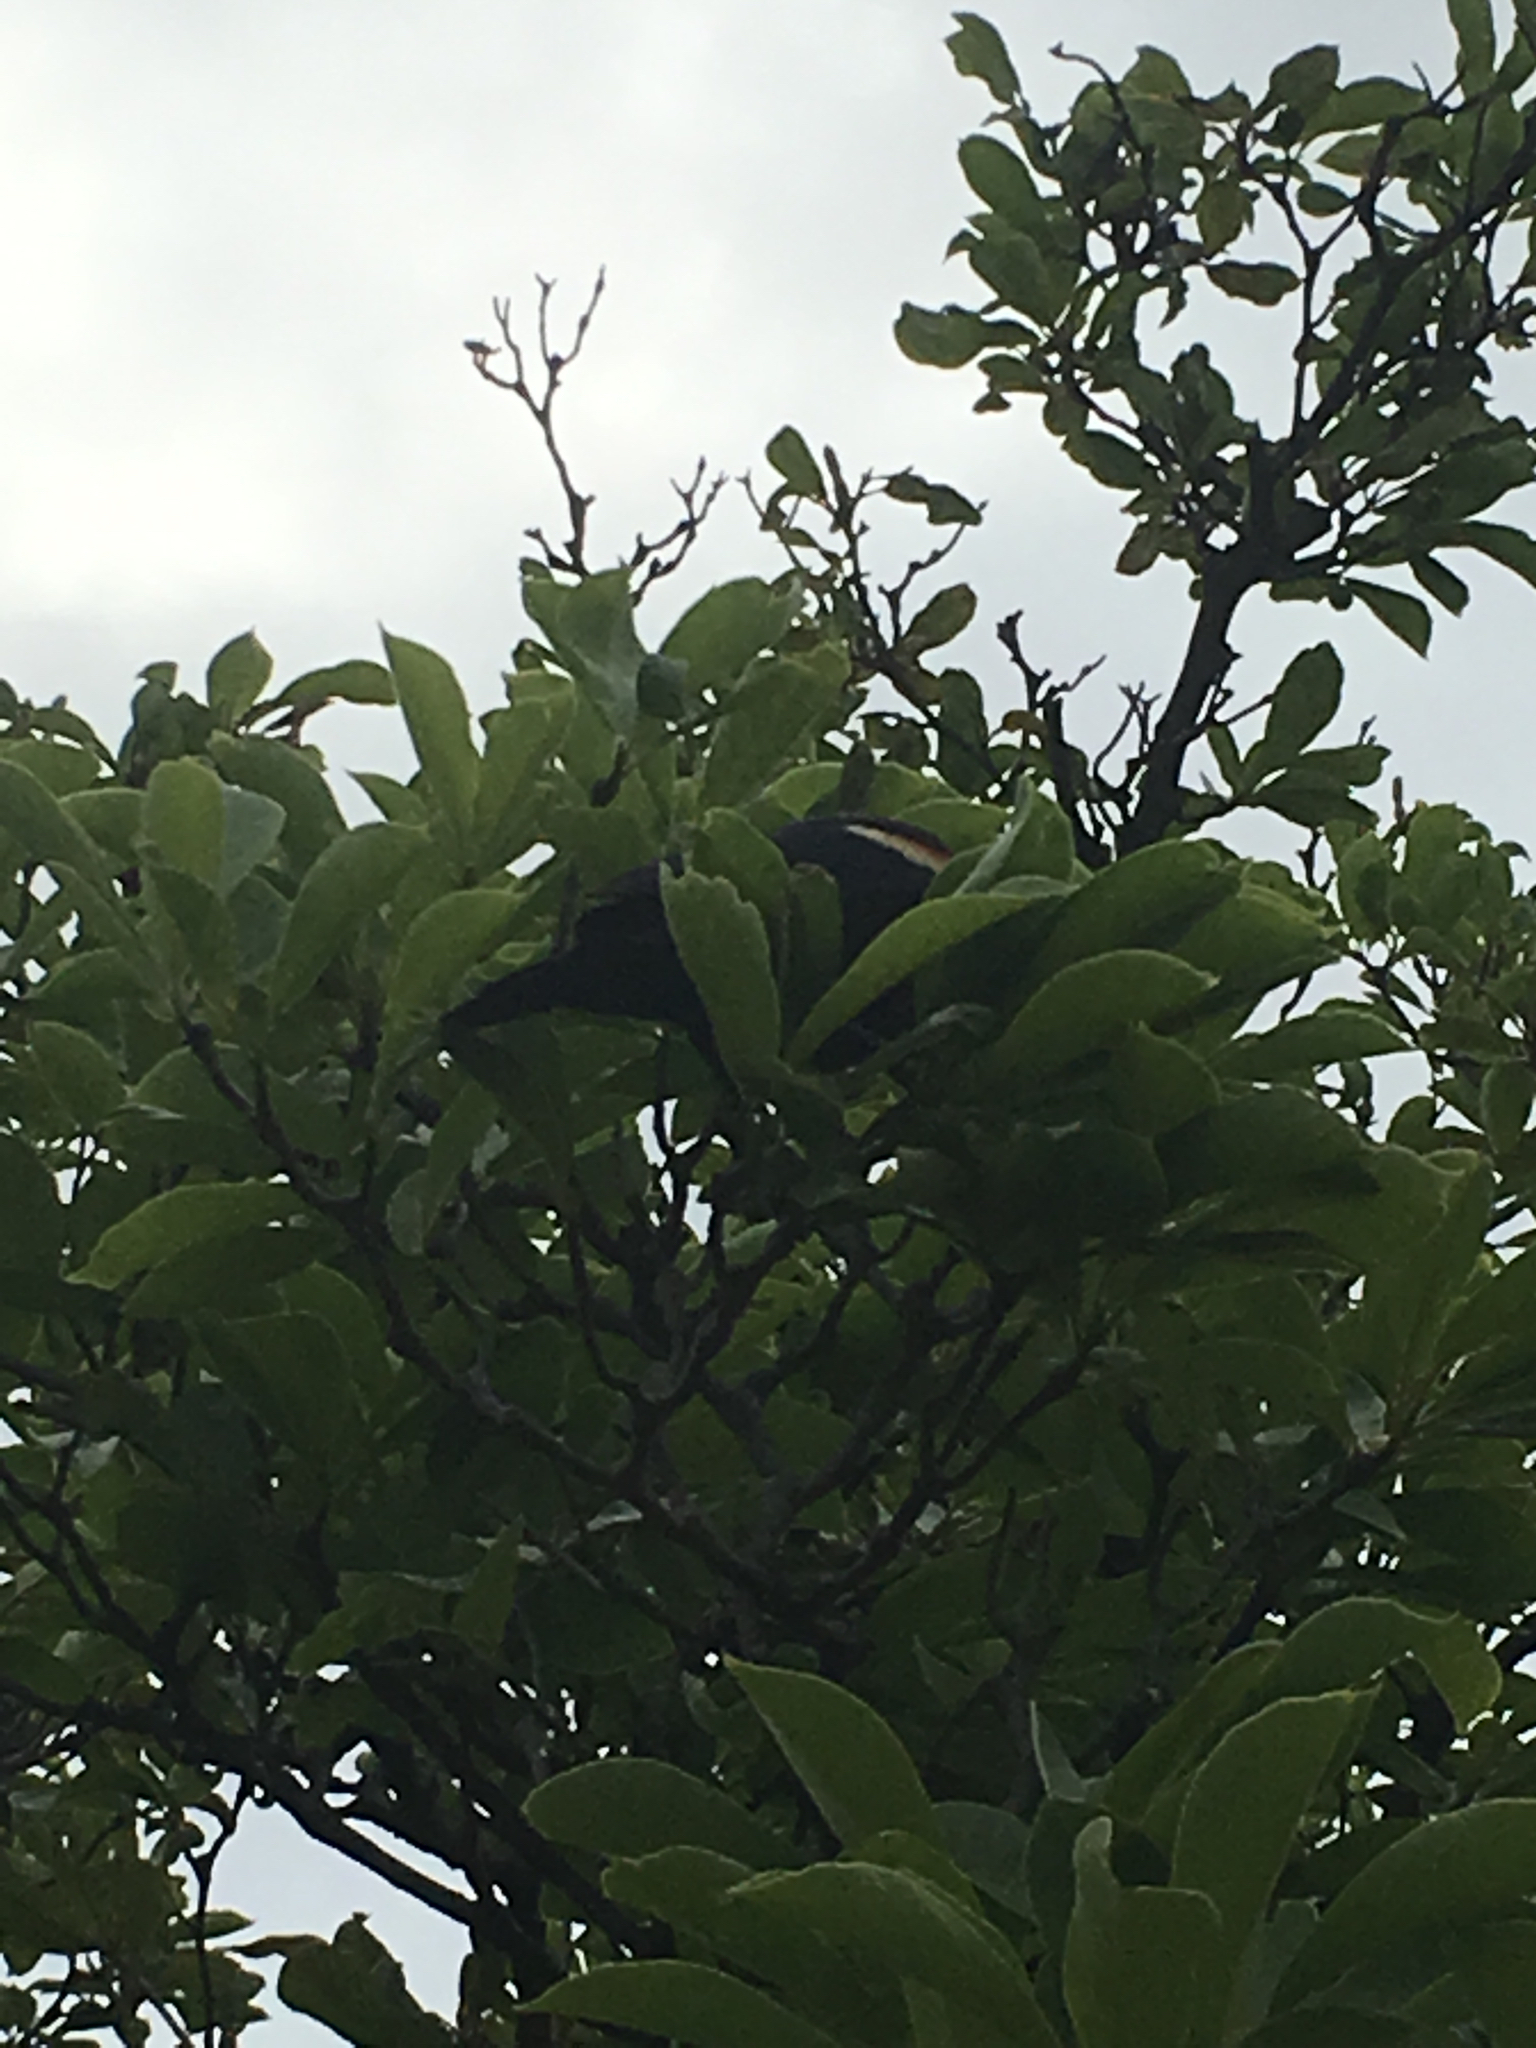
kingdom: Animalia
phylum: Chordata
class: Aves
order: Passeriformes
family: Icteridae
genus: Agelaius
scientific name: Agelaius phoeniceus
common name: Red-winged blackbird
